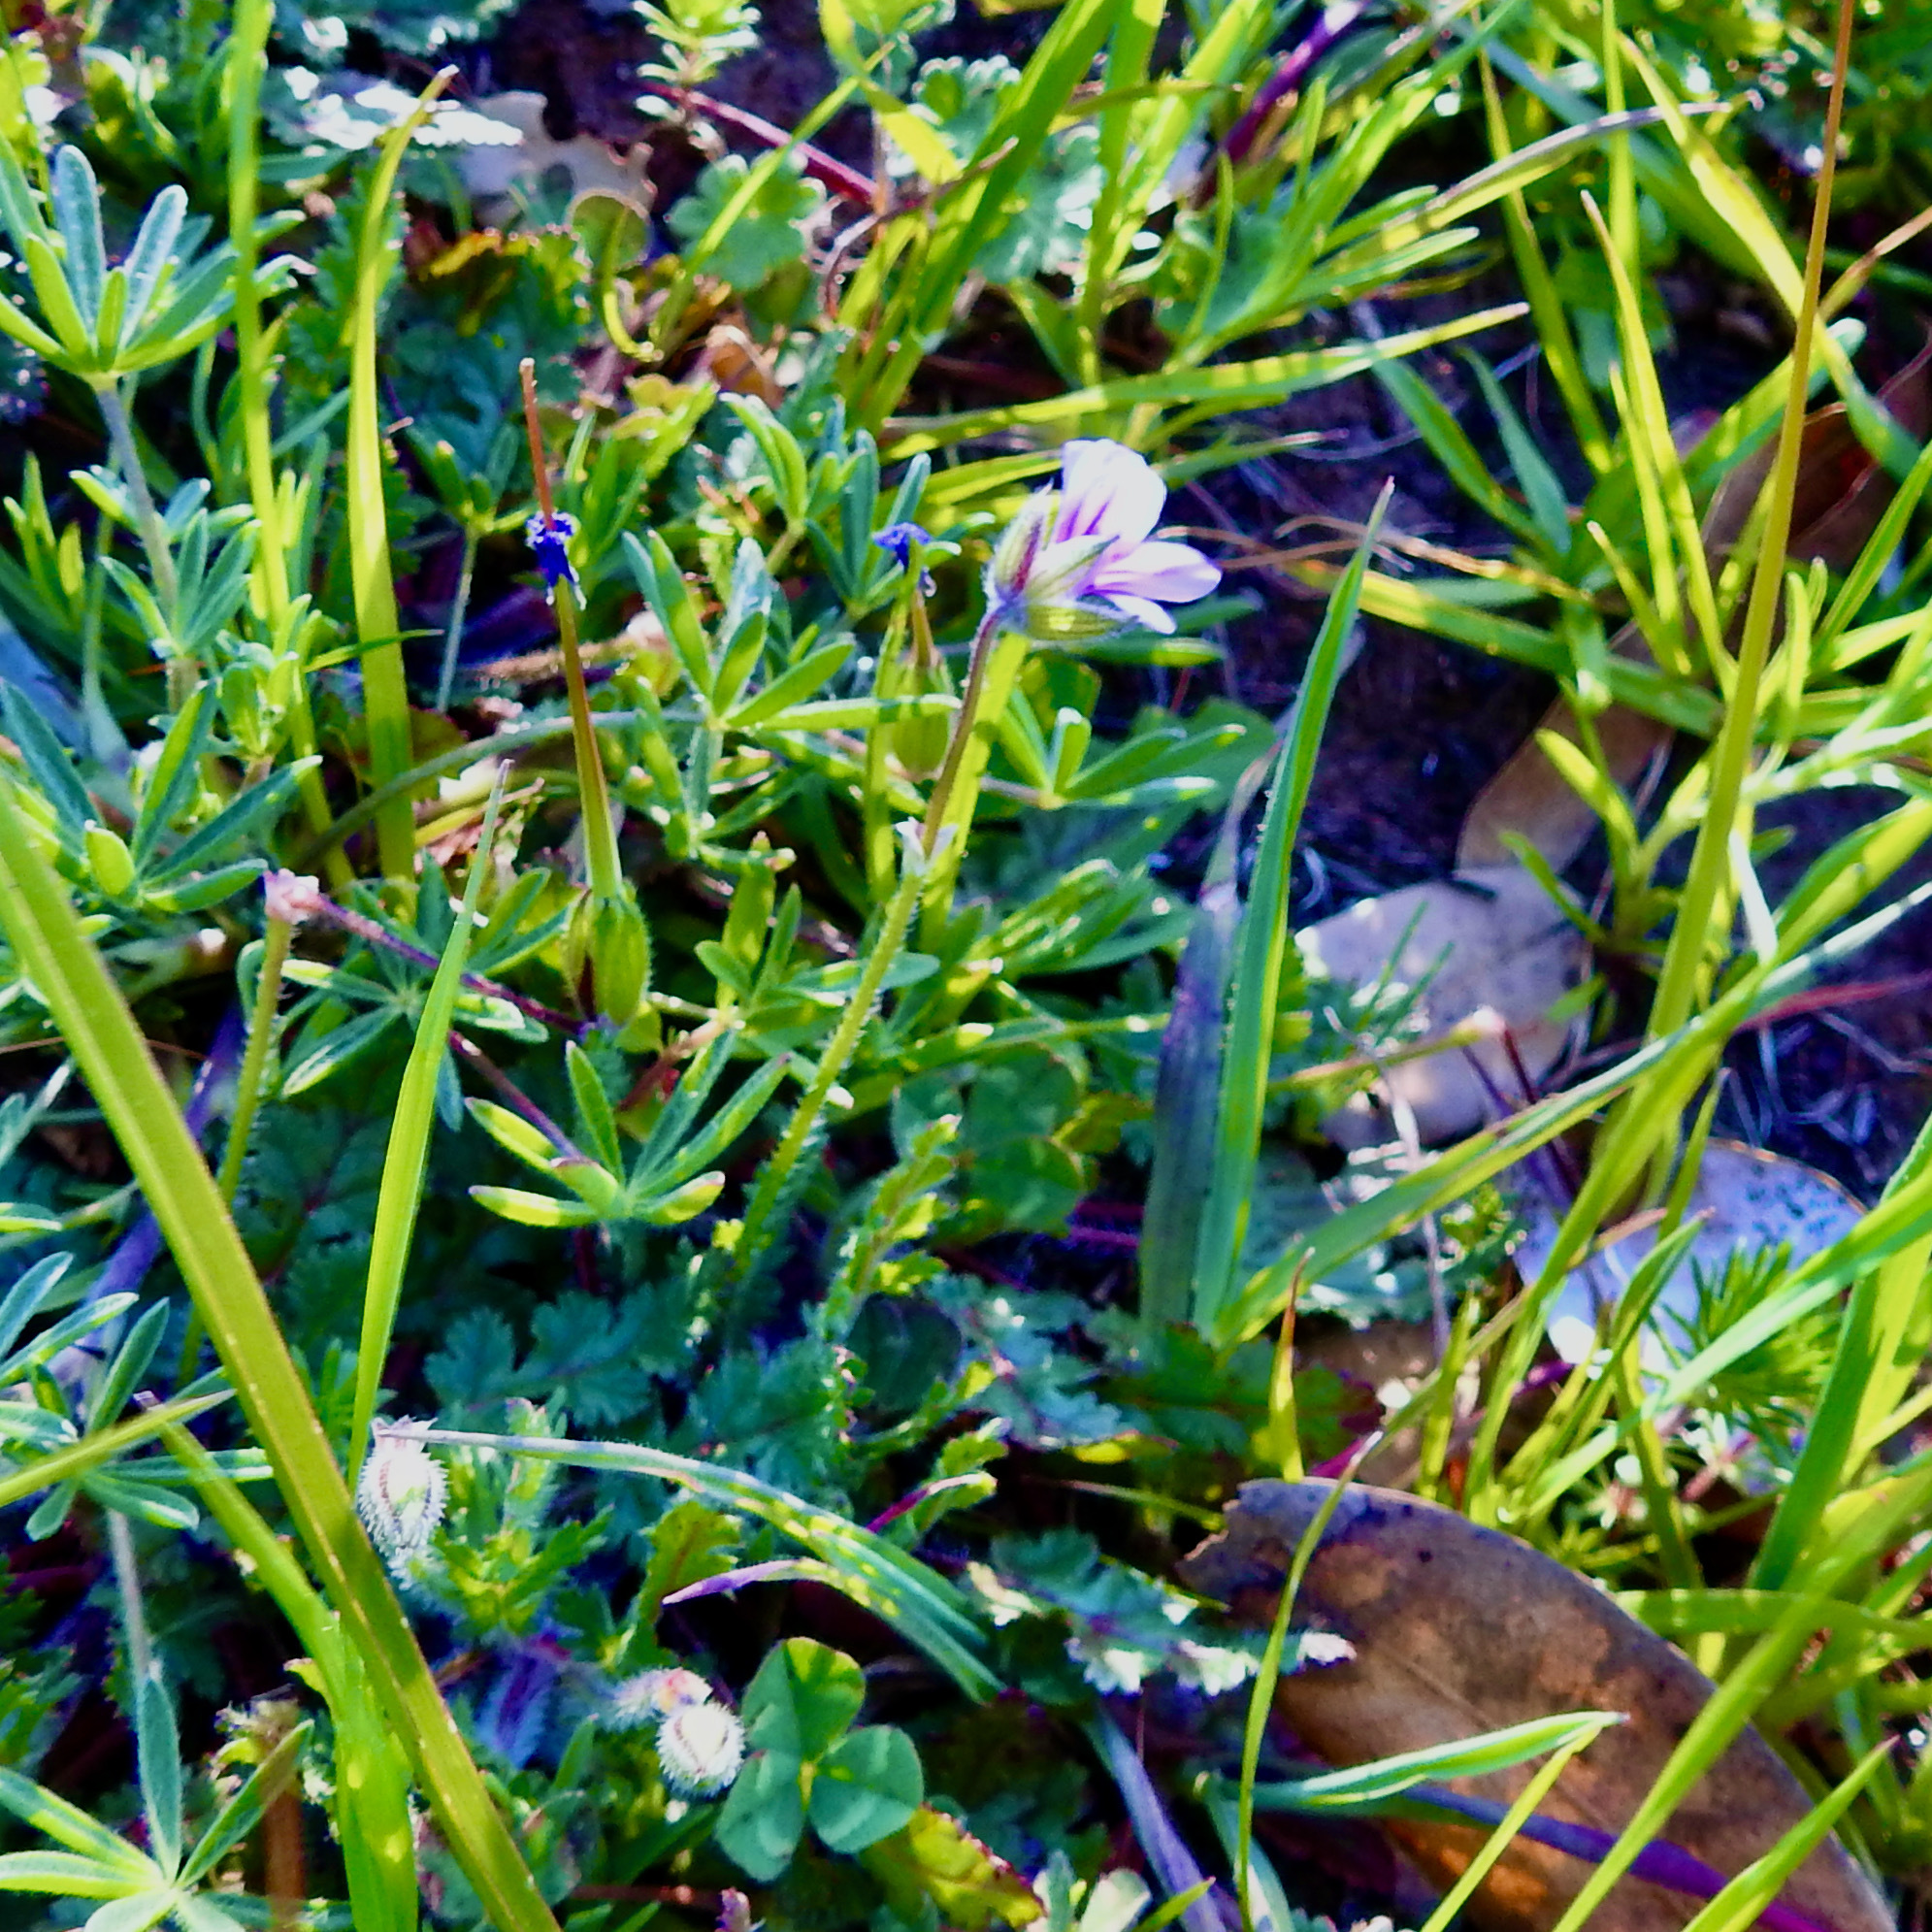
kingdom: Plantae
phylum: Tracheophyta
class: Magnoliopsida
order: Geraniales
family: Geraniaceae
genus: Erodium
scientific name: Erodium botrys
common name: Mediterranean stork's-bill
